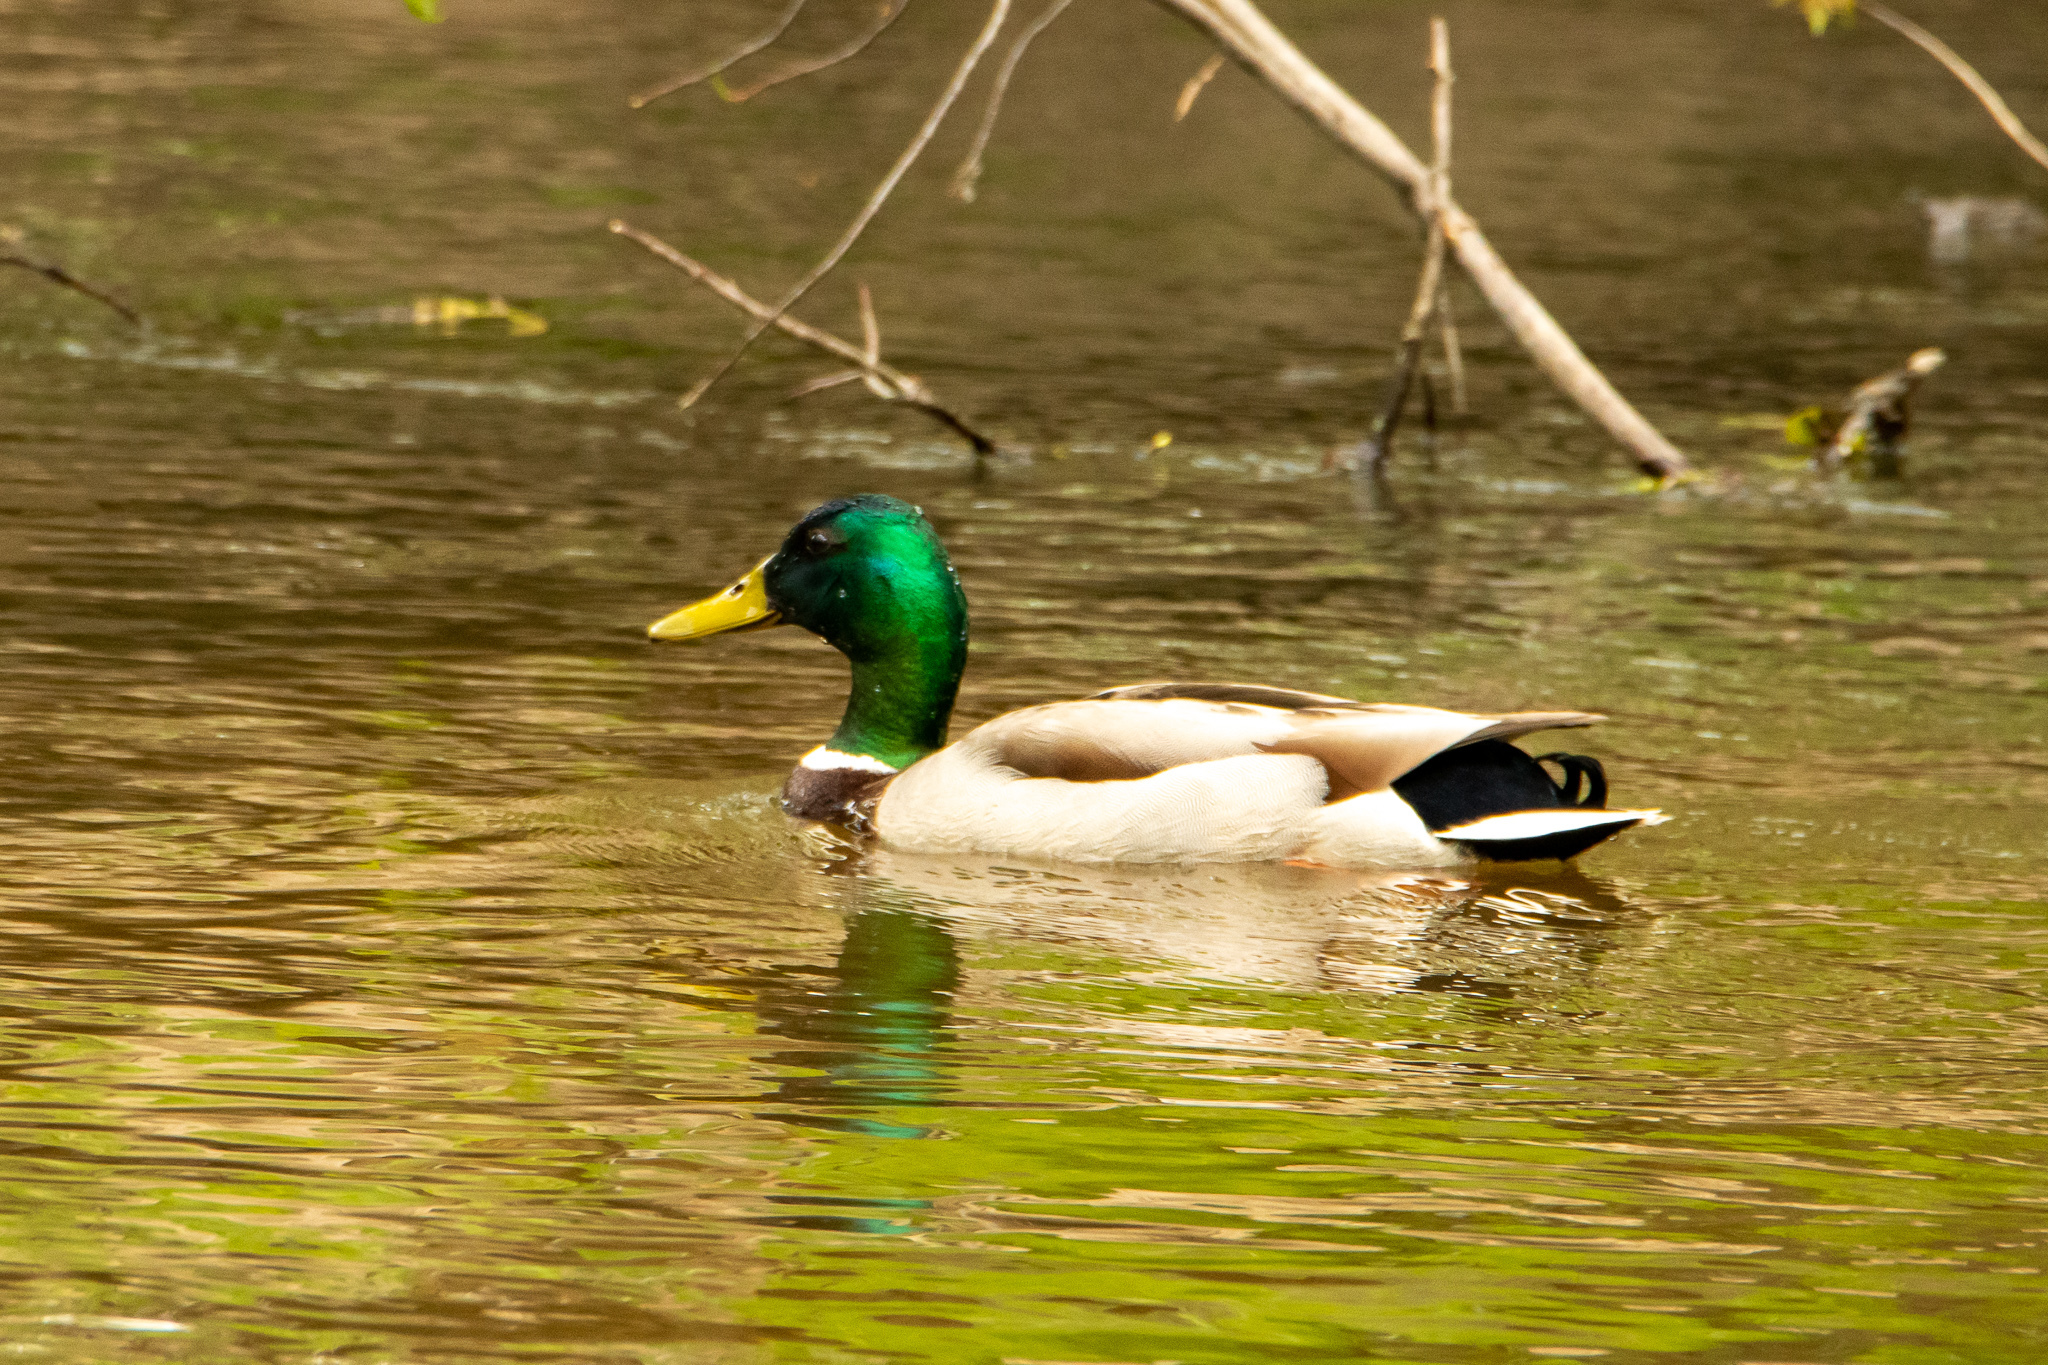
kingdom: Animalia
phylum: Chordata
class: Aves
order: Anseriformes
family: Anatidae
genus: Anas
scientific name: Anas platyrhynchos
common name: Mallard
